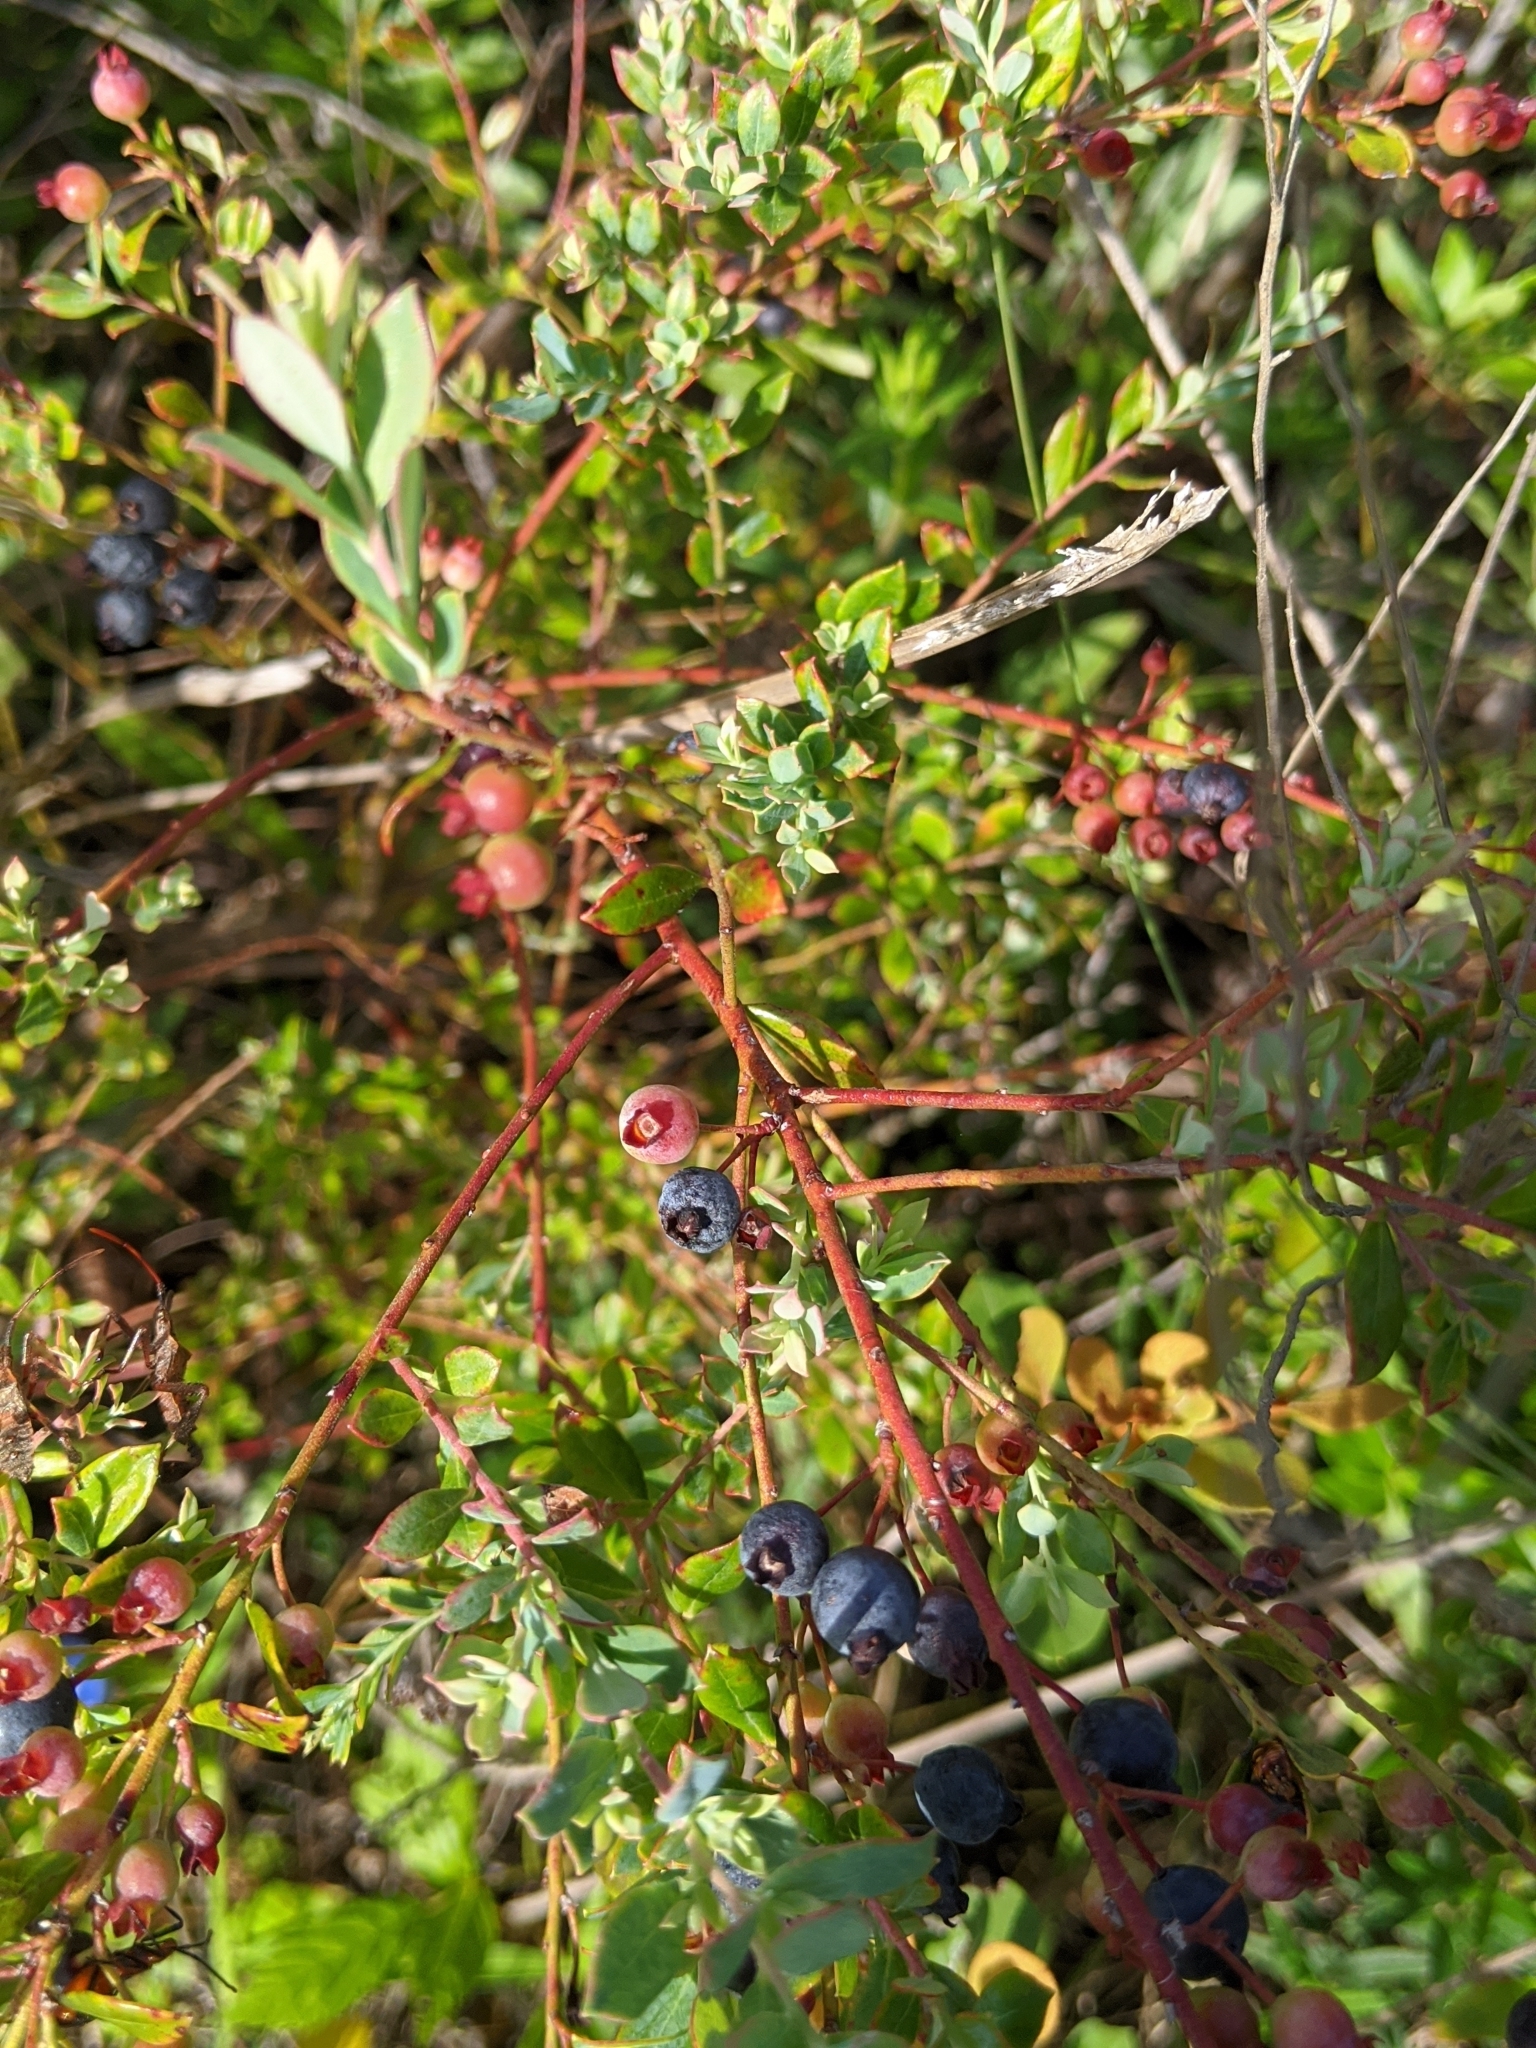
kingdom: Plantae
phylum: Tracheophyta
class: Magnoliopsida
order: Ericales
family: Ericaceae
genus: Vaccinium
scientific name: Vaccinium darrowii
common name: Darrow's blueberry
